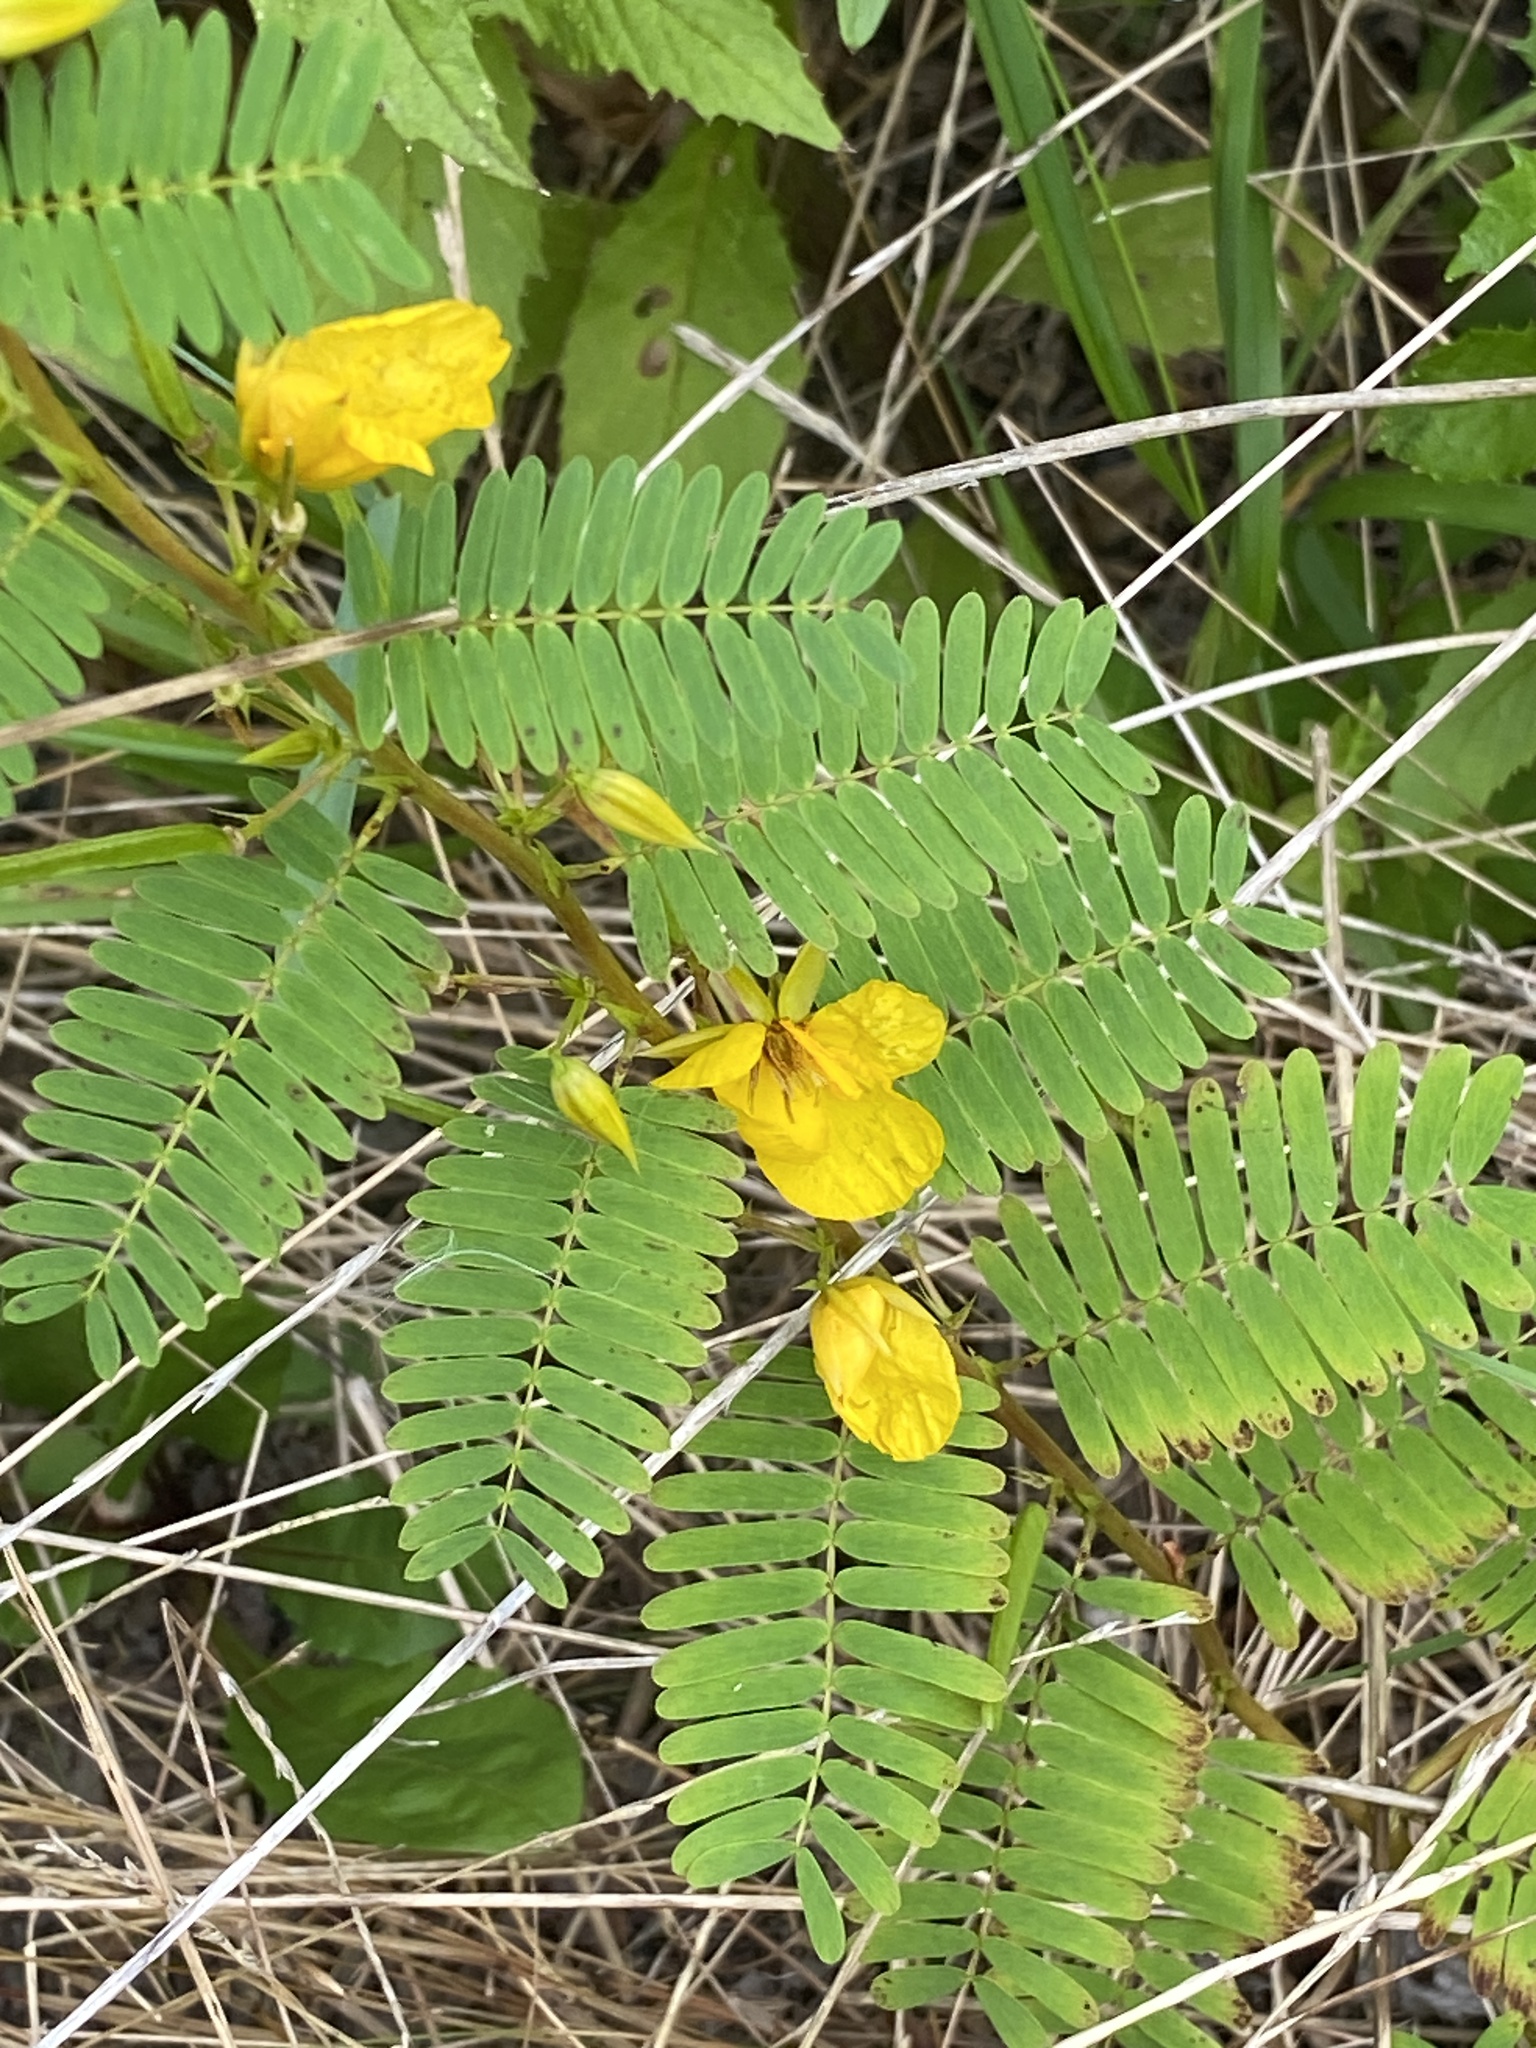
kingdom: Plantae
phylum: Tracheophyta
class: Magnoliopsida
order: Fabales
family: Fabaceae
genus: Chamaecrista
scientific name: Chamaecrista fasciculata
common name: Golden cassia
